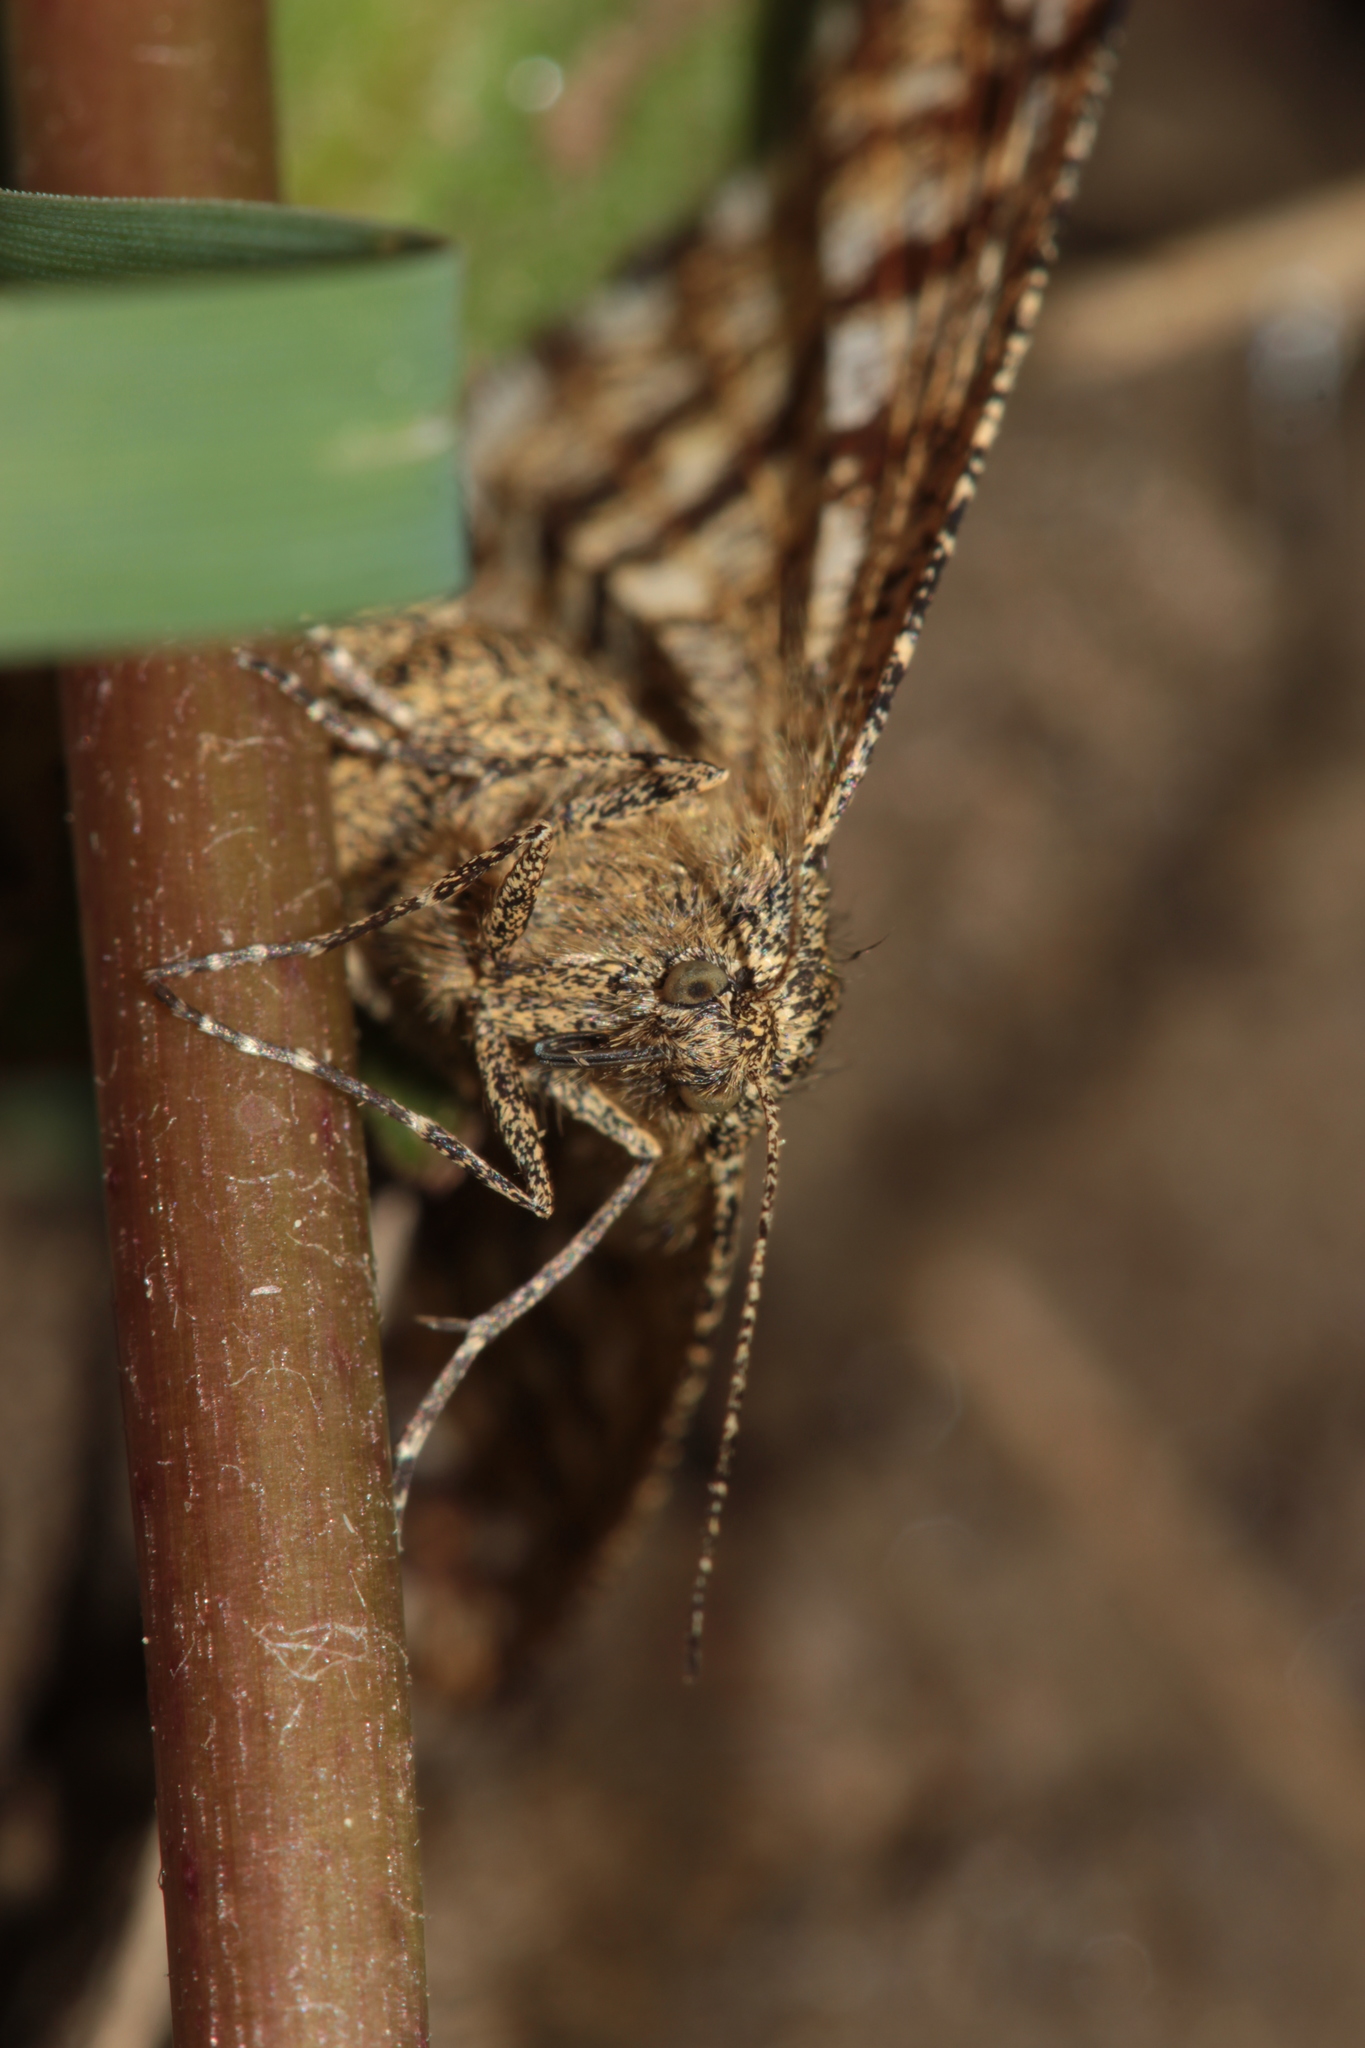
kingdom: Animalia
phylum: Arthropoda
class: Insecta
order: Lepidoptera
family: Geometridae
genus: Ematurga
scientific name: Ematurga atomaria
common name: Common heath
